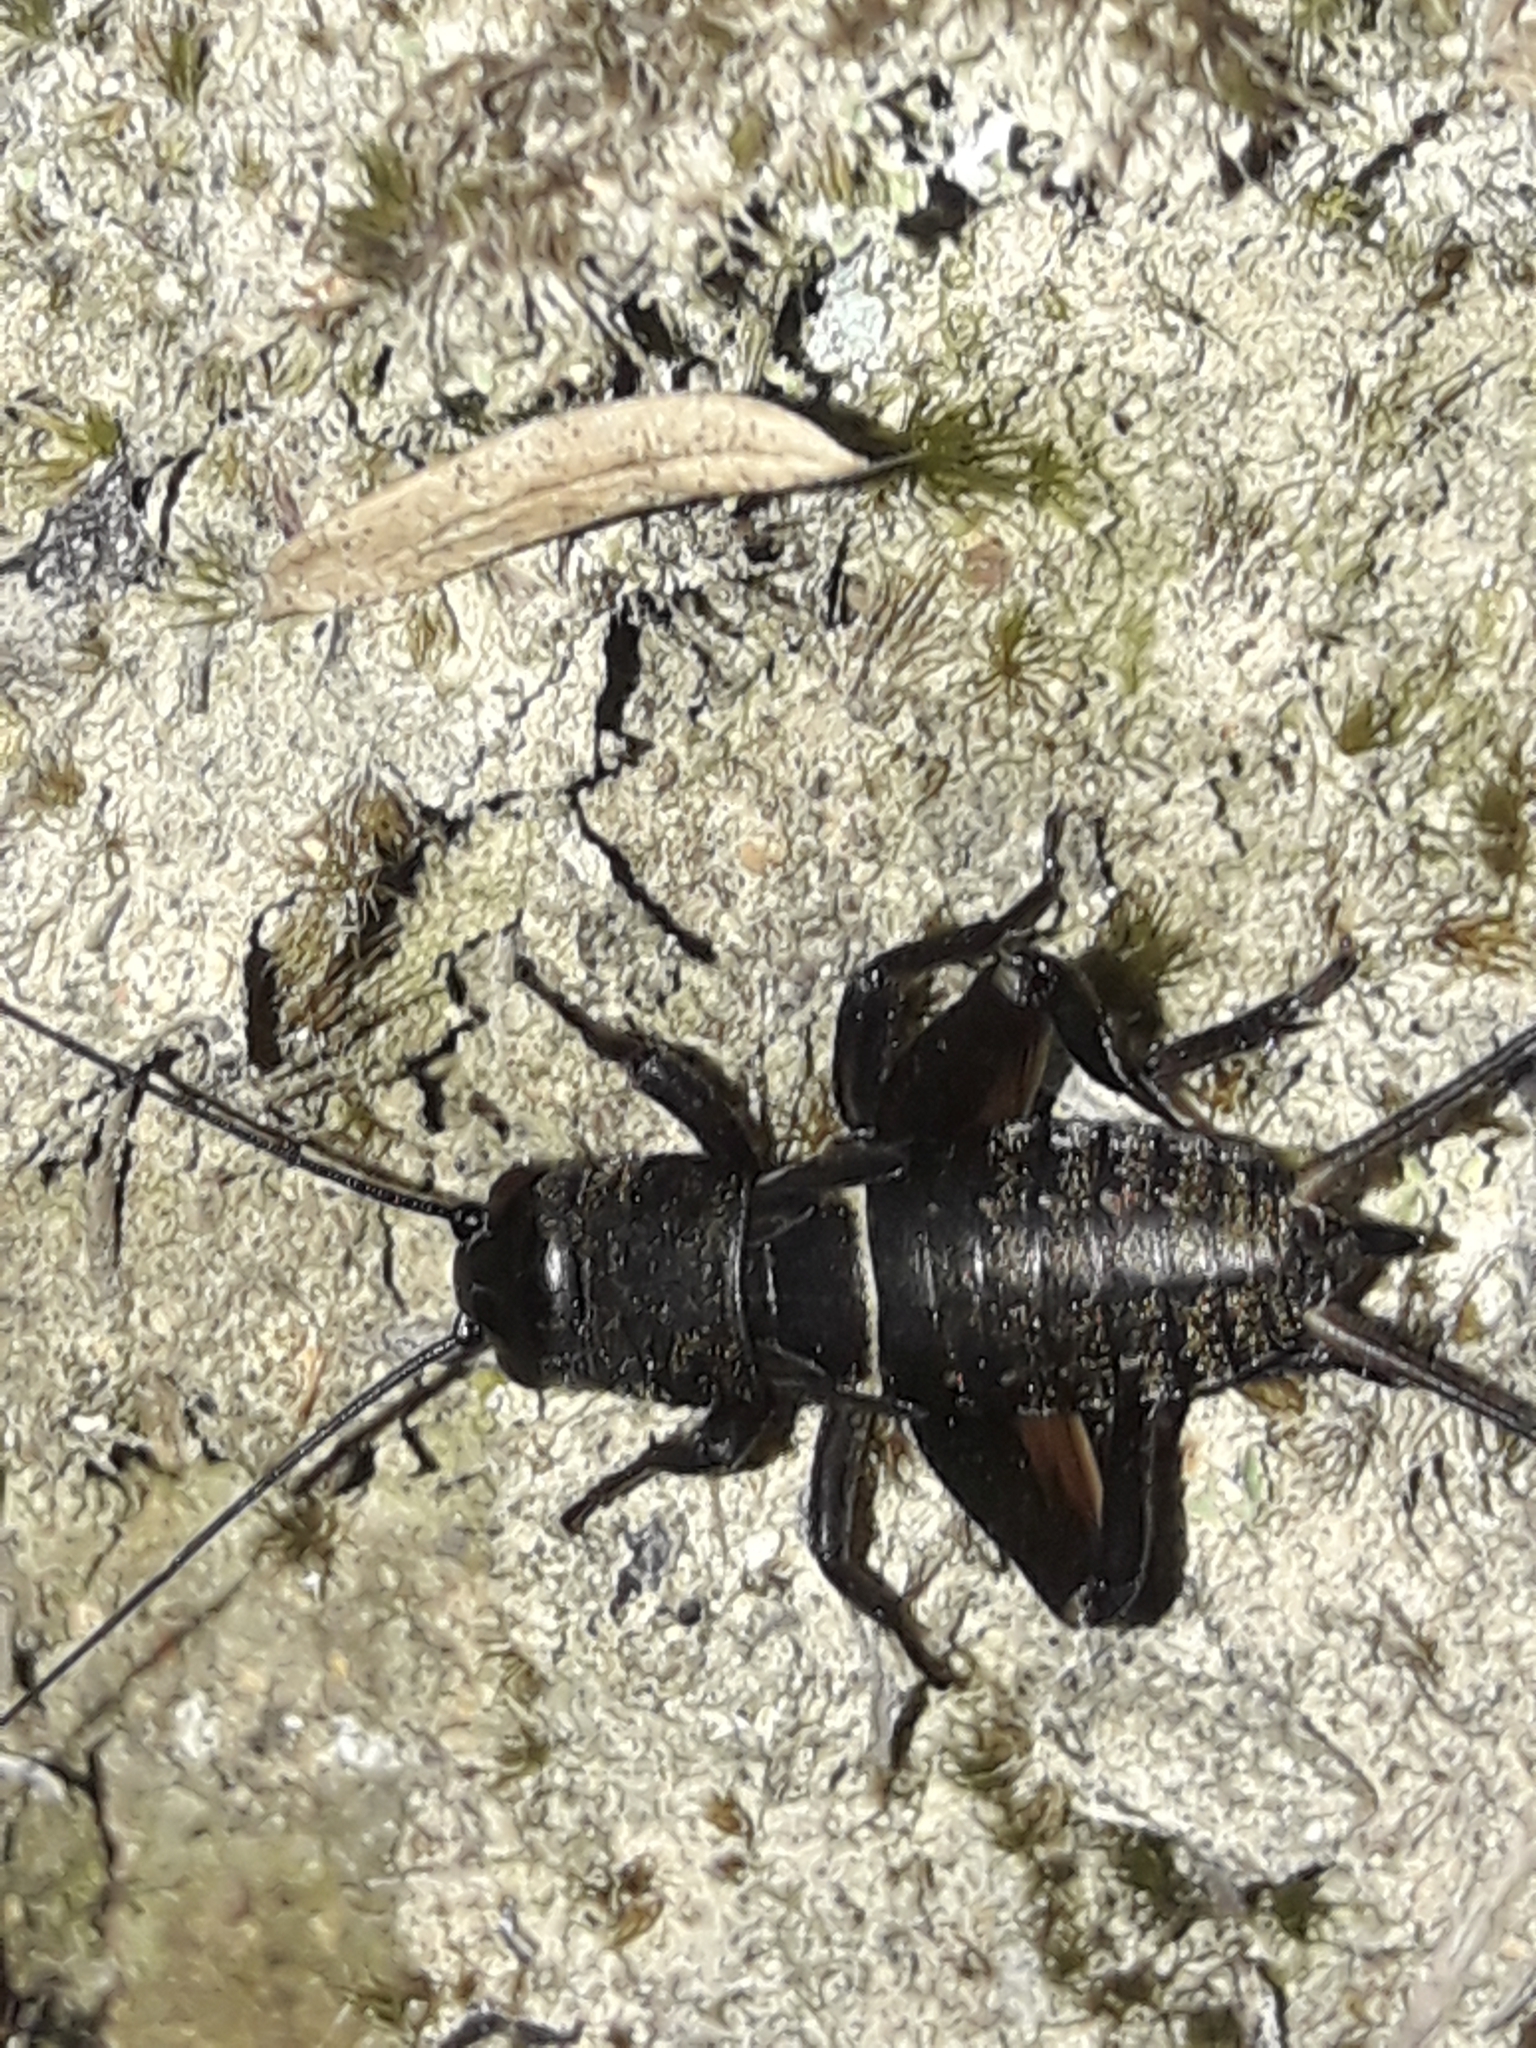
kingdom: Animalia
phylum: Arthropoda
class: Insecta
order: Orthoptera
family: Gryllidae
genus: Teleogryllus
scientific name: Teleogryllus commodus
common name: Black field cricket
